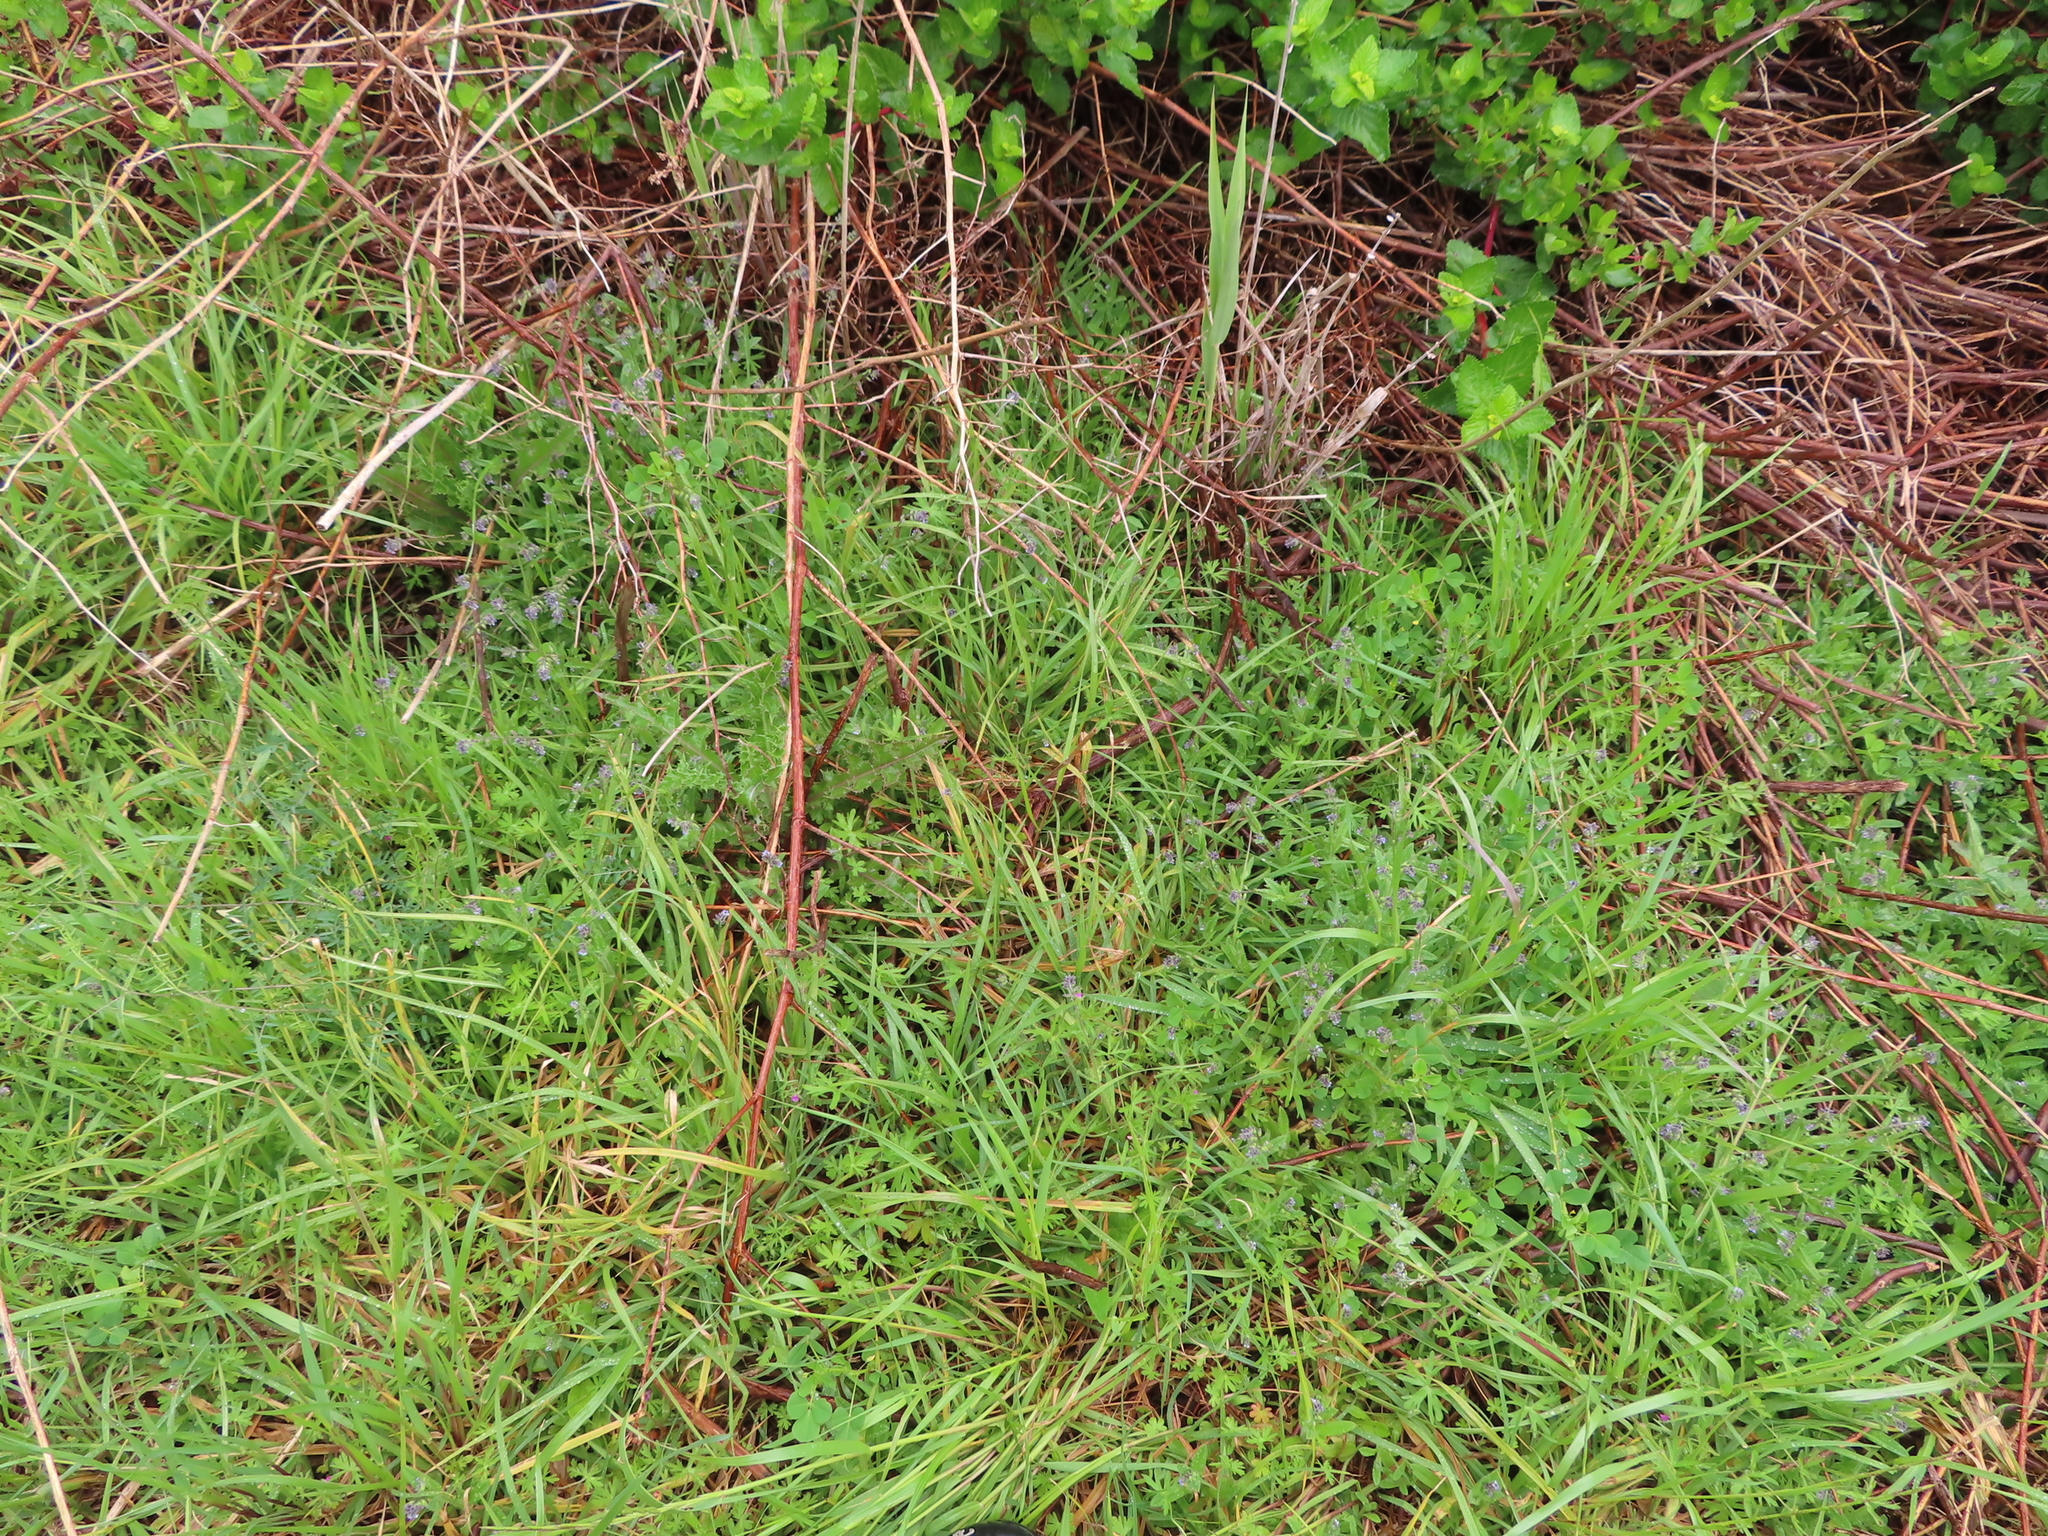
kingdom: Plantae
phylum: Tracheophyta
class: Magnoliopsida
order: Boraginales
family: Boraginaceae
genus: Myosotis
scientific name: Myosotis discolor
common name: Changing forget-me-not
